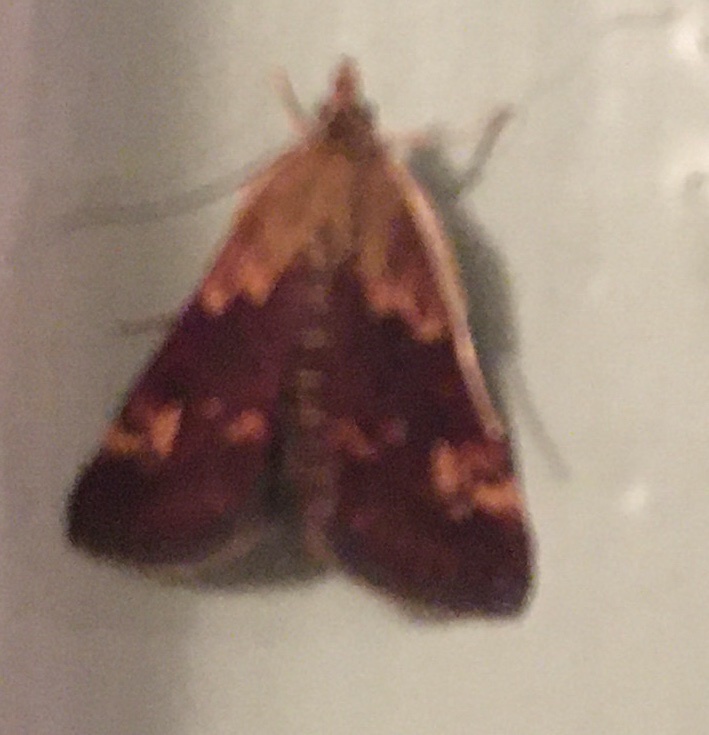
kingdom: Animalia
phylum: Arthropoda
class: Insecta
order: Lepidoptera
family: Crambidae
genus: Pyrausta
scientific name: Pyrausta orphisalis
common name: Orange mint moth
